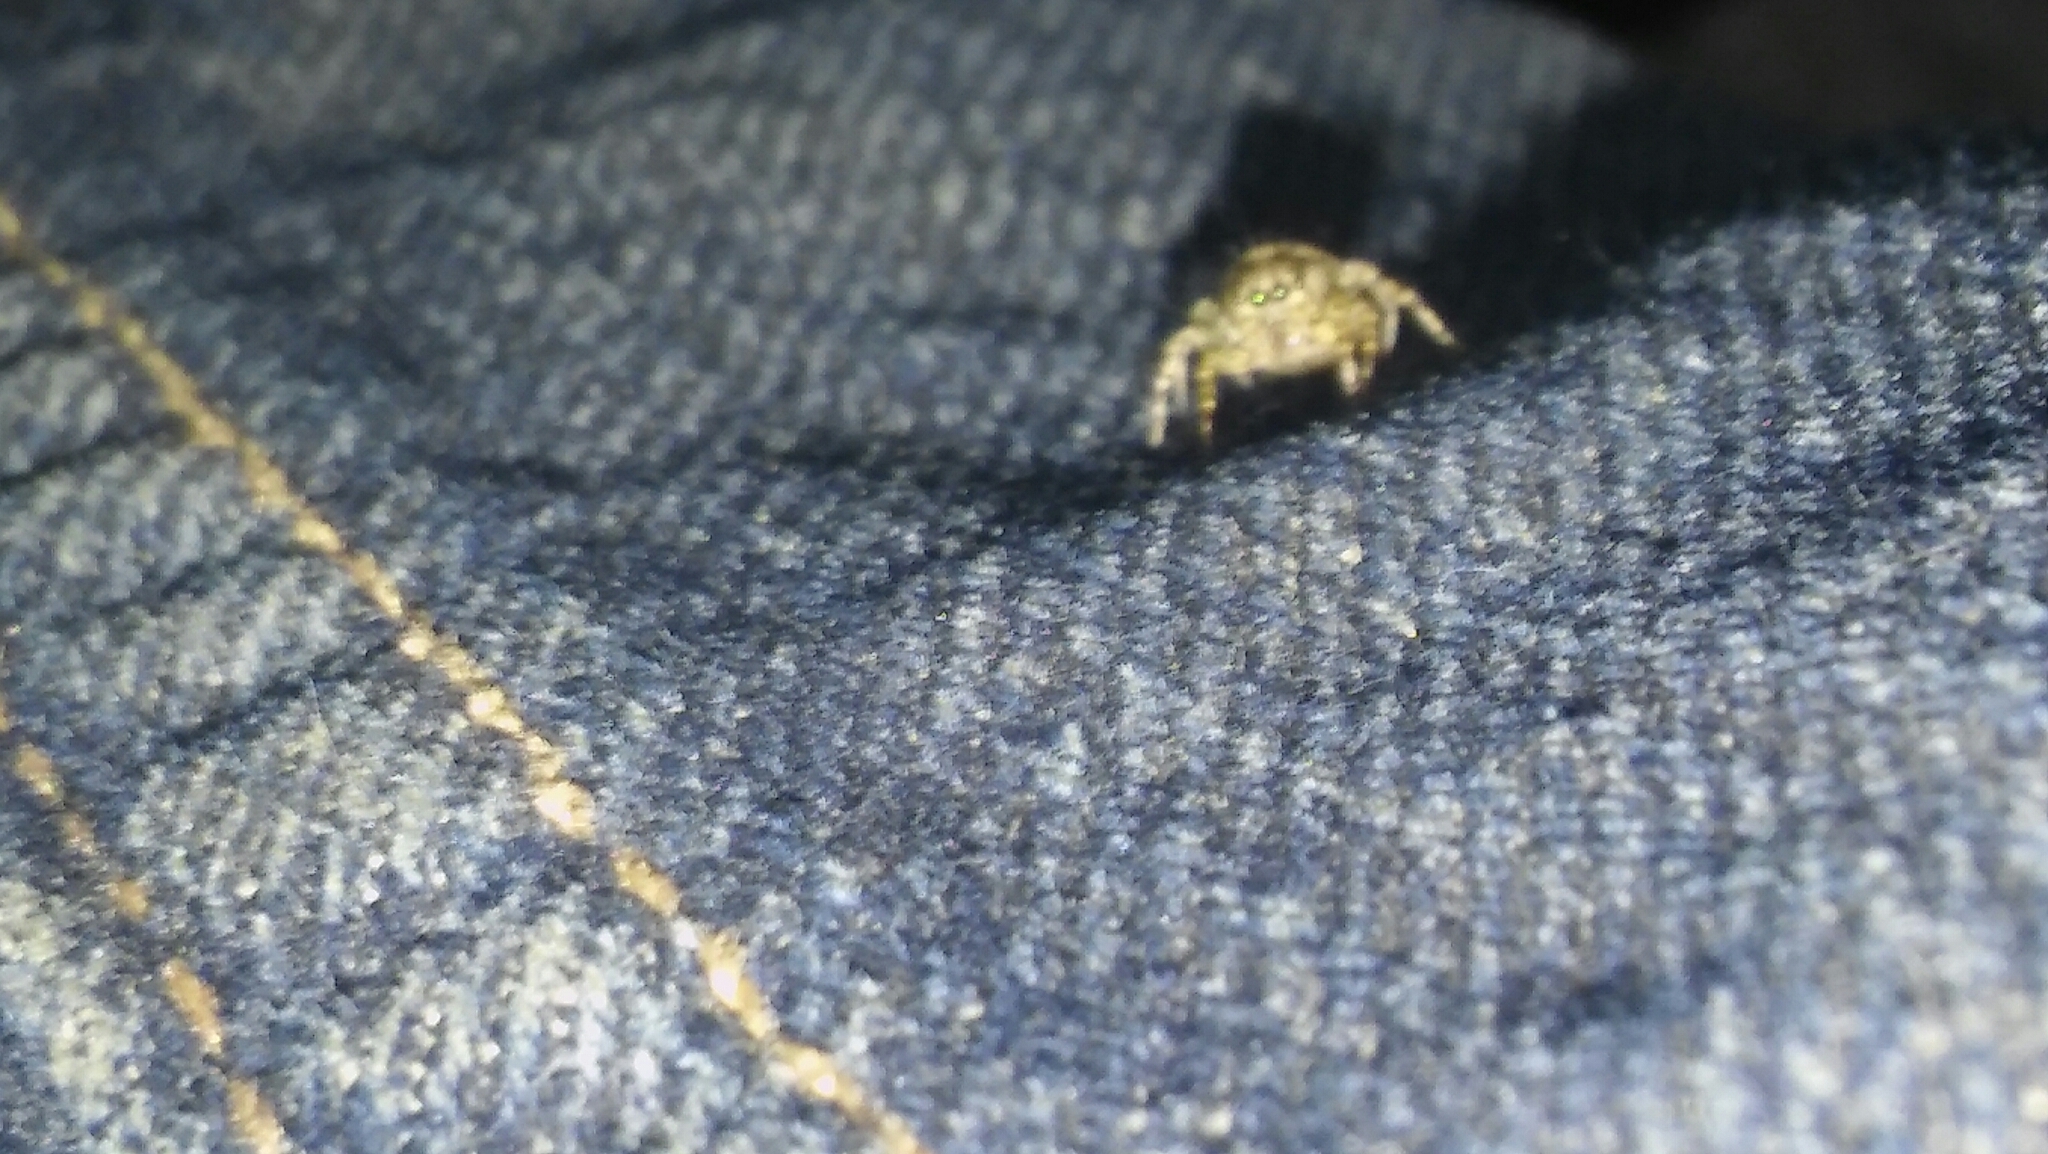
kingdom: Animalia
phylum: Arthropoda
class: Arachnida
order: Araneae
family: Salticidae
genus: Saitis
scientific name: Saitis variegatus
